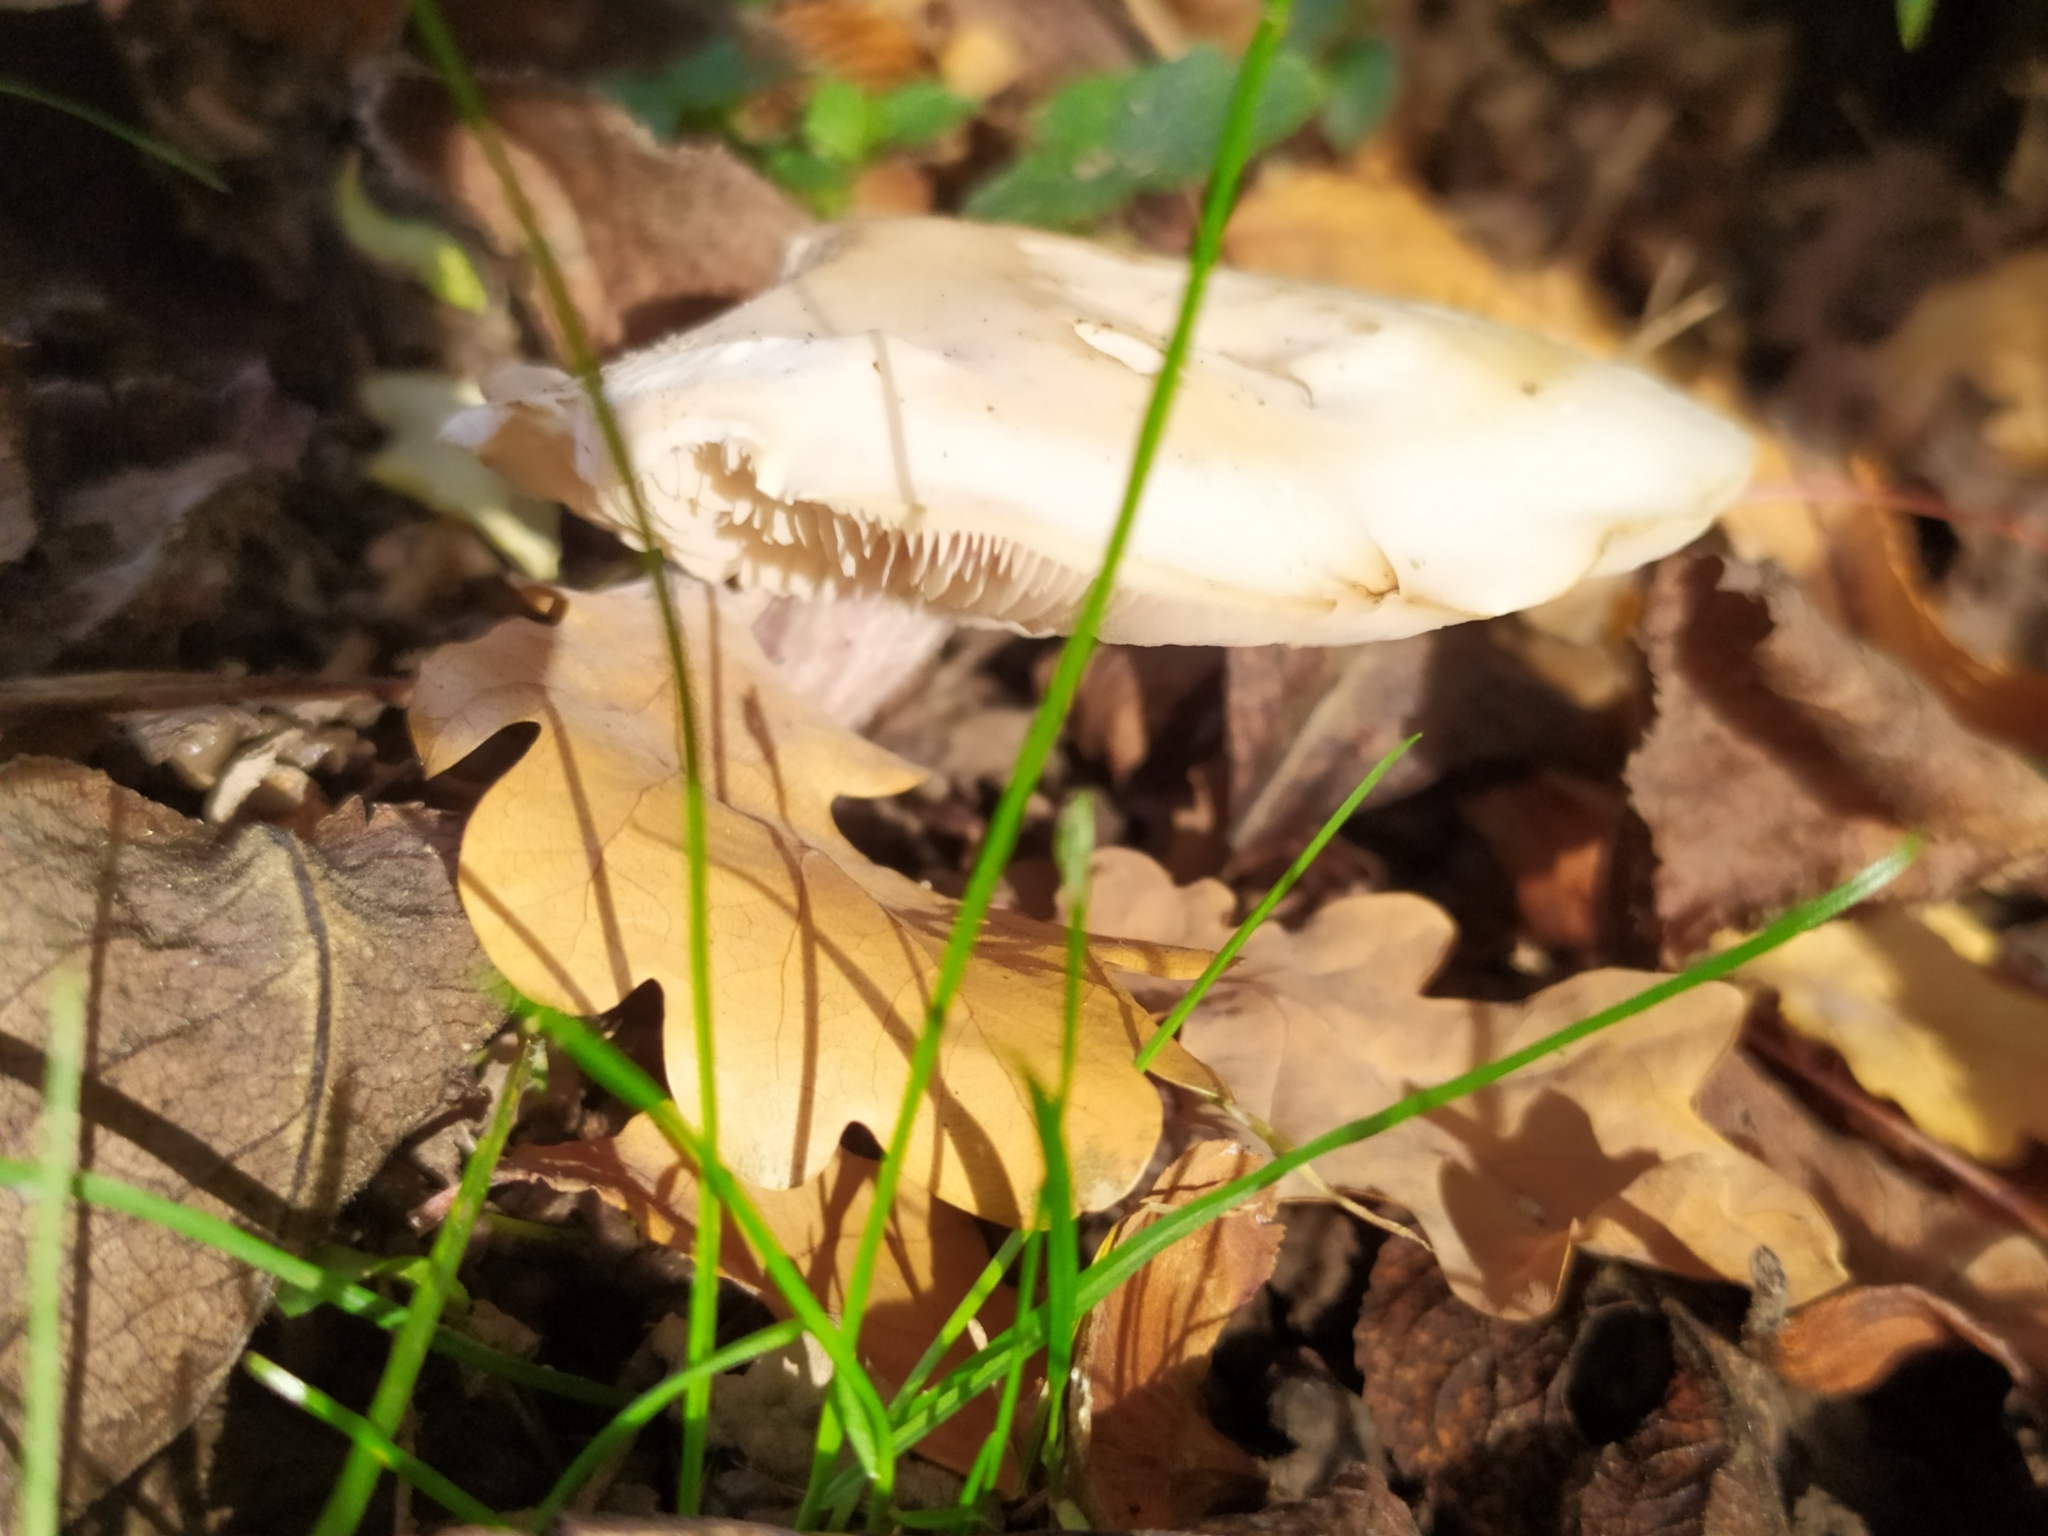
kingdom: Fungi
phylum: Basidiomycota
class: Agaricomycetes
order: Agaricales
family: Omphalotaceae
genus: Collybiopsis
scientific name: Collybiopsis peronata
